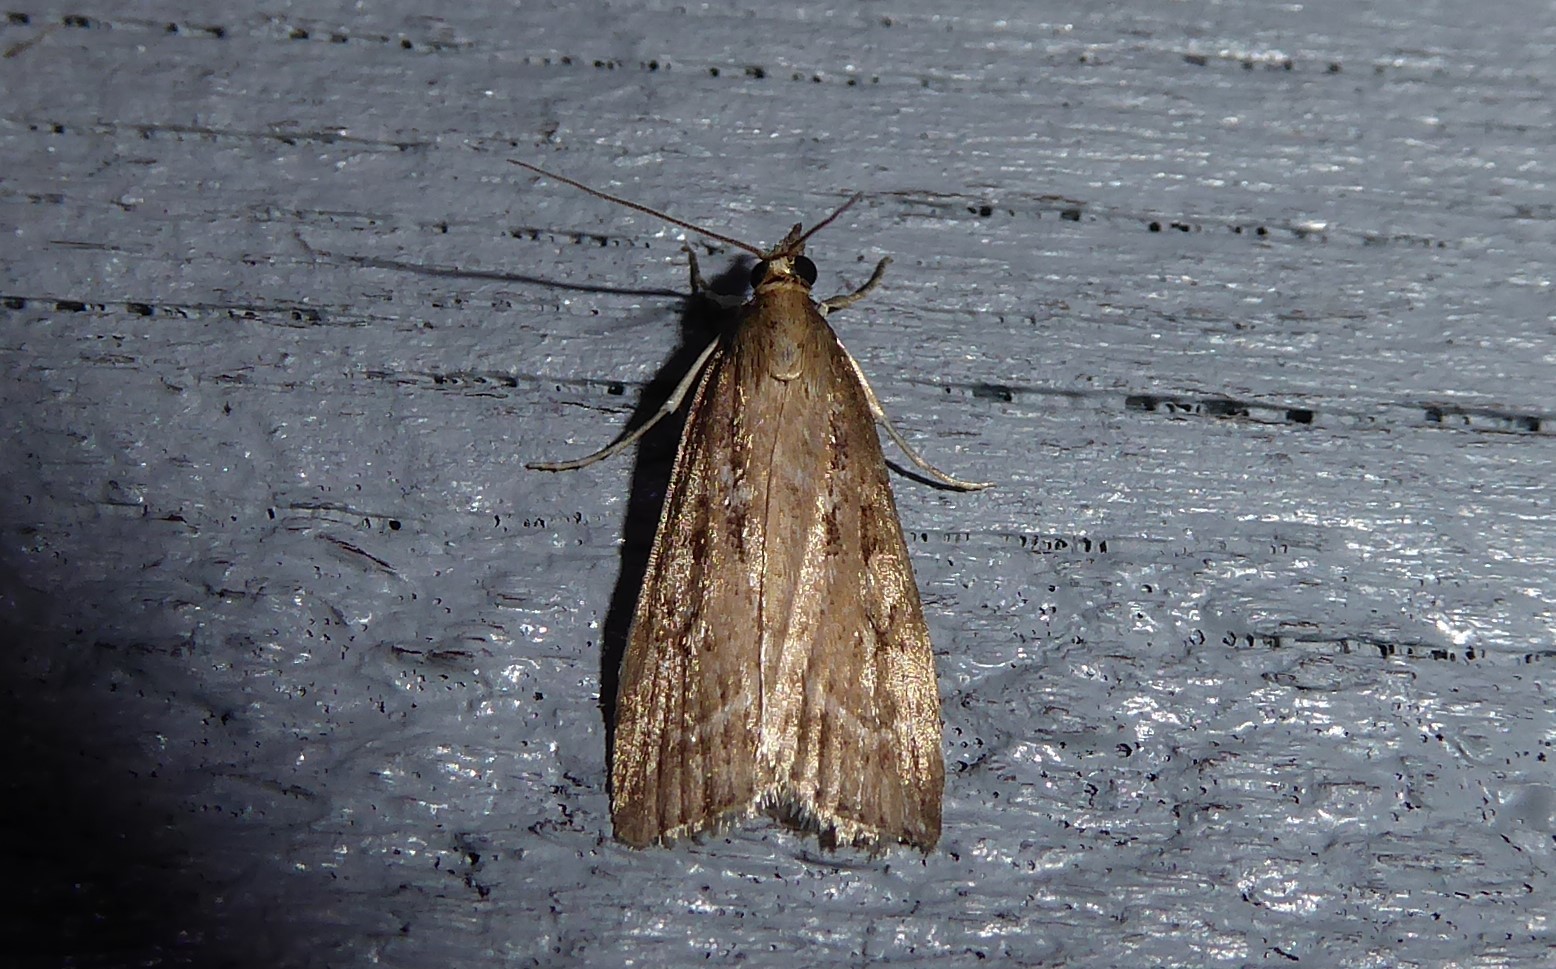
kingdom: Animalia
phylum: Arthropoda
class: Insecta
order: Lepidoptera
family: Crambidae
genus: Eudonia
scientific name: Eudonia octophora
